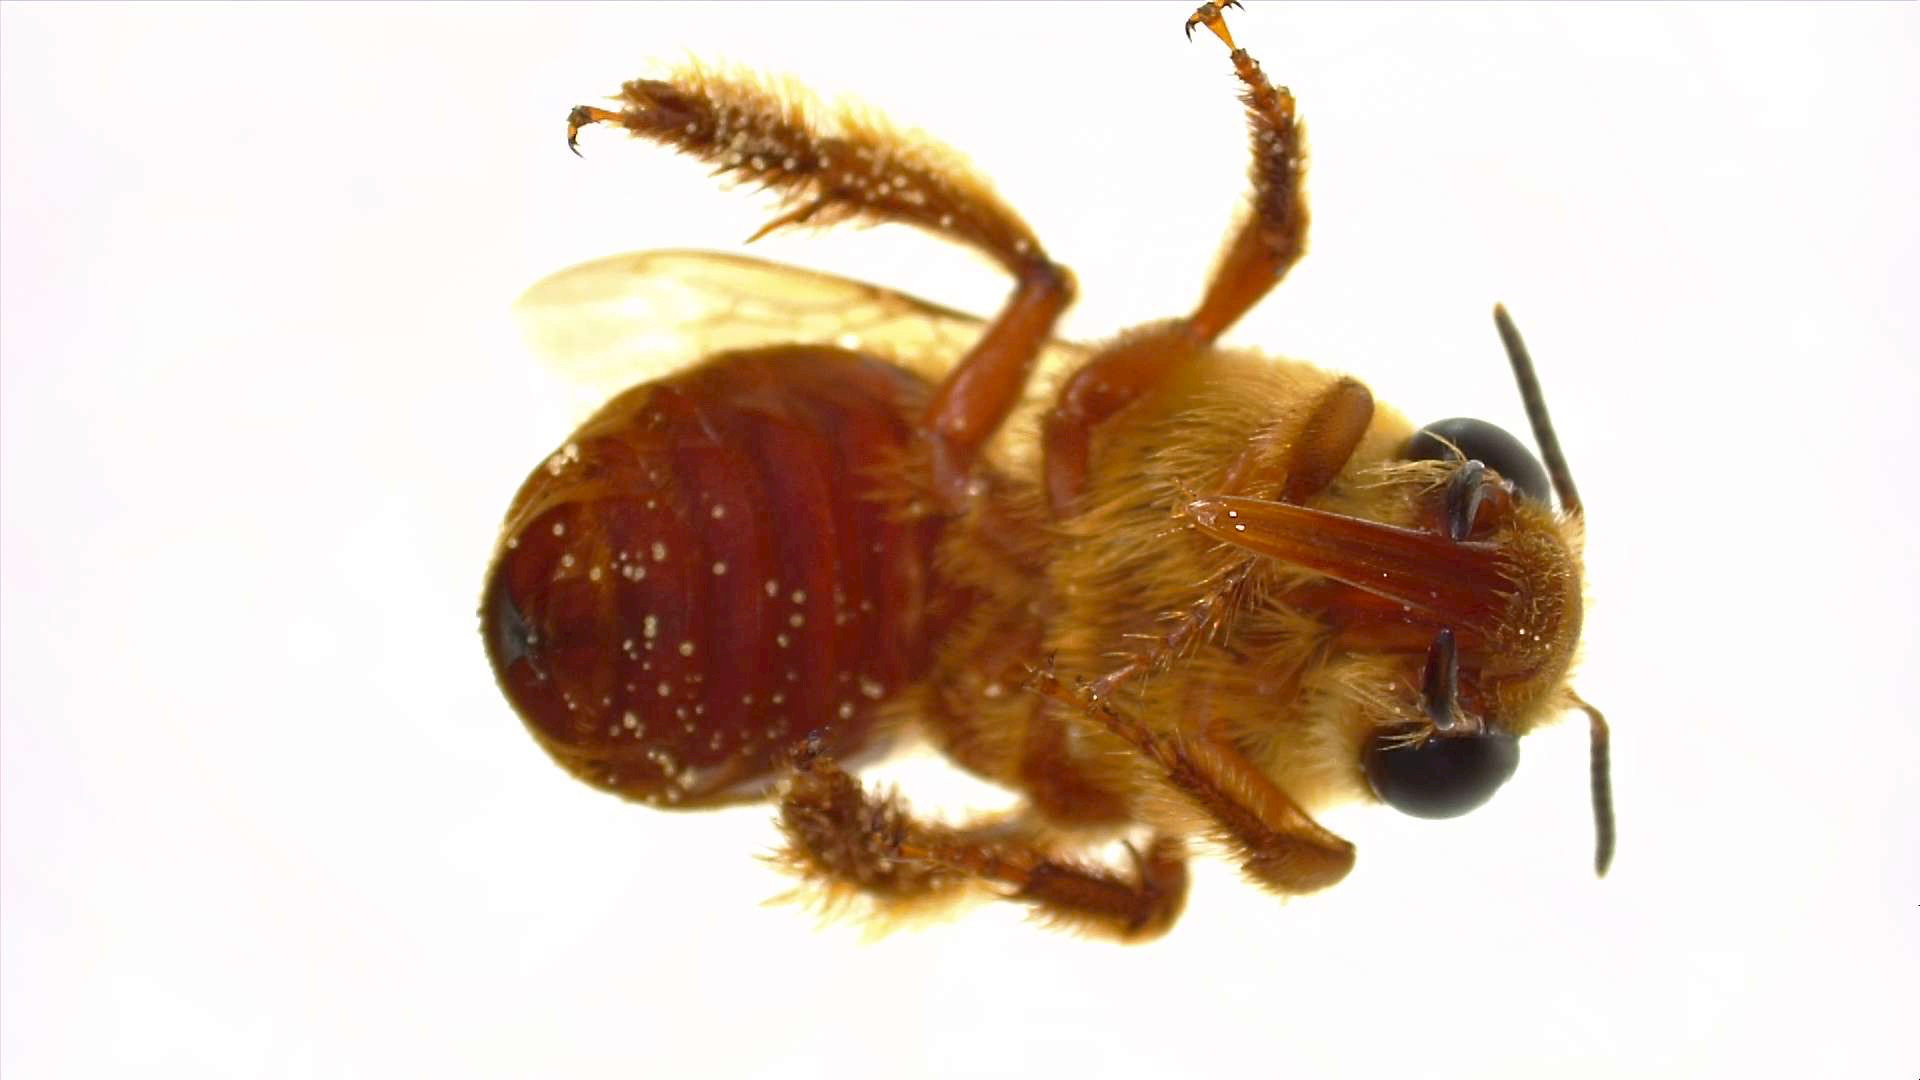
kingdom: Animalia
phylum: Arthropoda
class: Insecta
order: Hymenoptera
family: Apidae
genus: Xenoglossa
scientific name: Xenoglossa angustior
